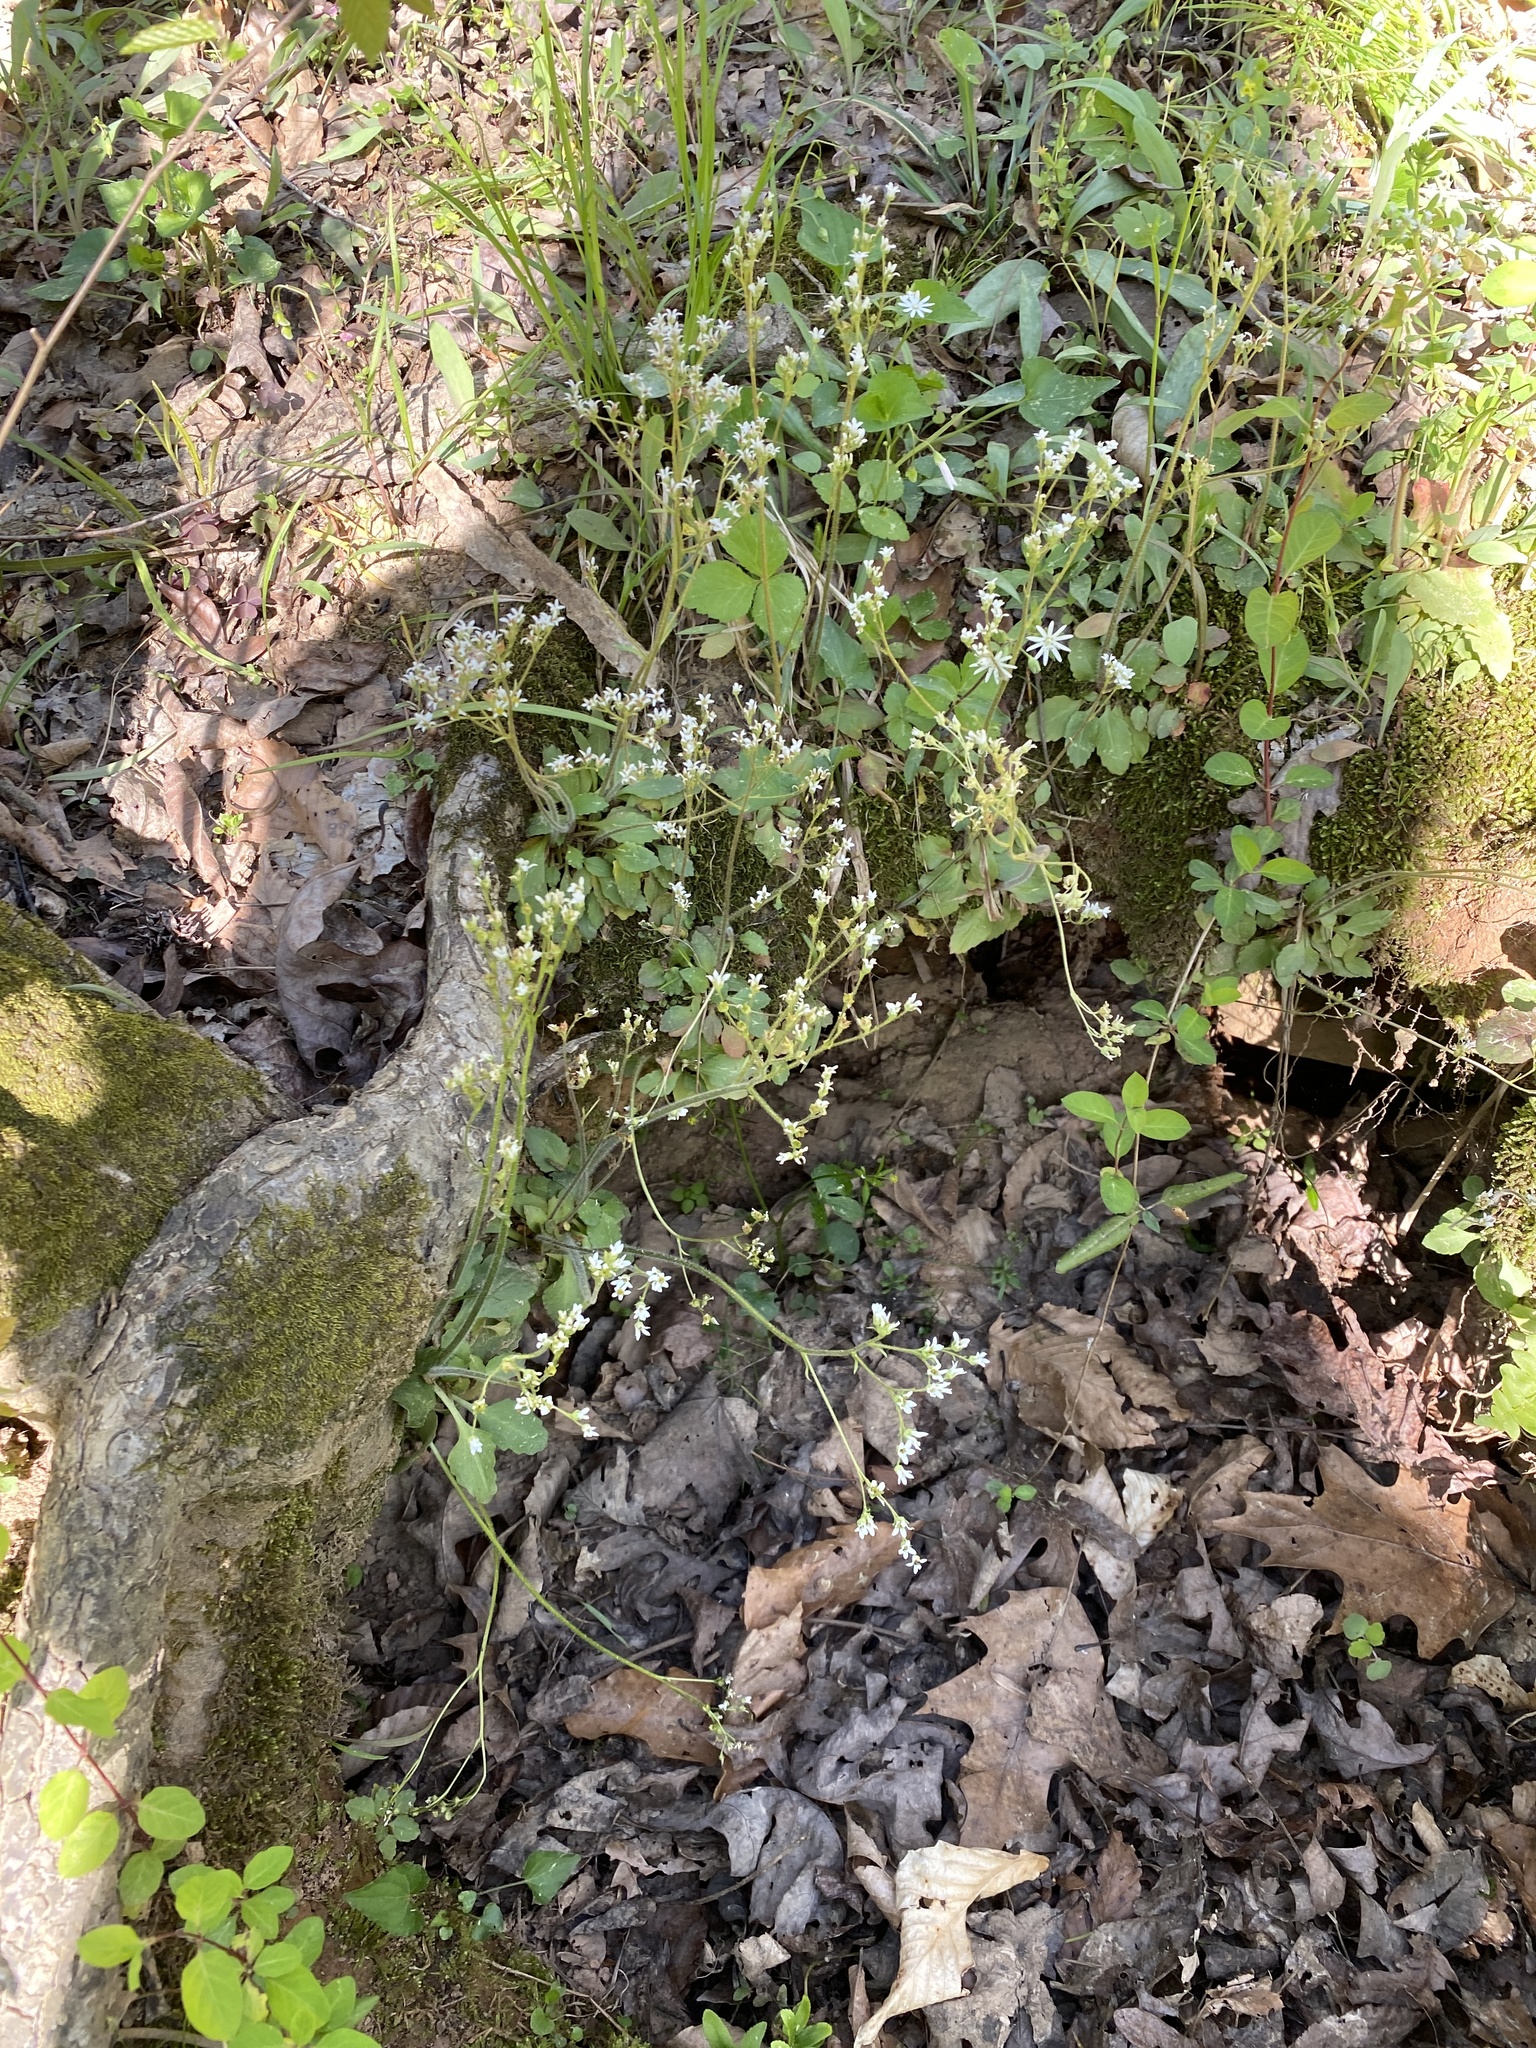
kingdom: Plantae
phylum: Tracheophyta
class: Magnoliopsida
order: Saxifragales
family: Saxifragaceae
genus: Micranthes
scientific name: Micranthes virginiensis
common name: Early saxifrage
